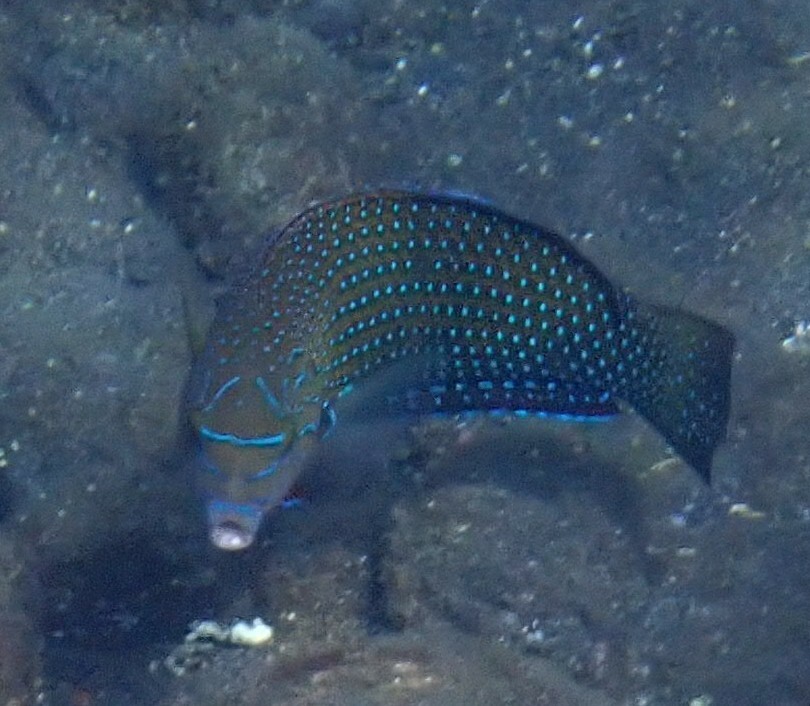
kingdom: Animalia
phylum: Chordata
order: Perciformes
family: Labridae
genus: Anampses
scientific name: Anampses caeruleopunctatus
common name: Bluespotted wrasse
